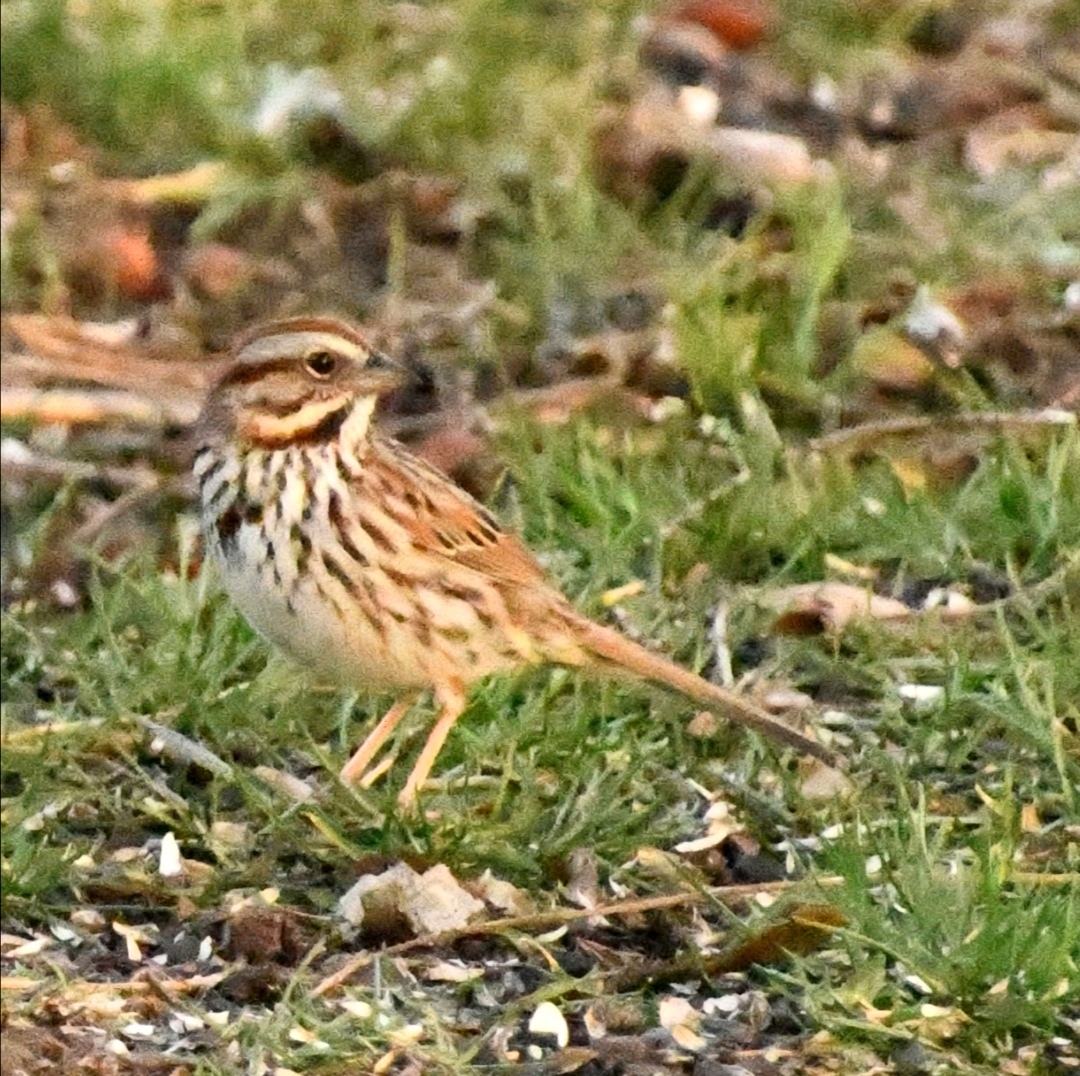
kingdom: Animalia
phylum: Chordata
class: Aves
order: Passeriformes
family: Passerellidae
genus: Melospiza
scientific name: Melospiza melodia
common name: Song sparrow
